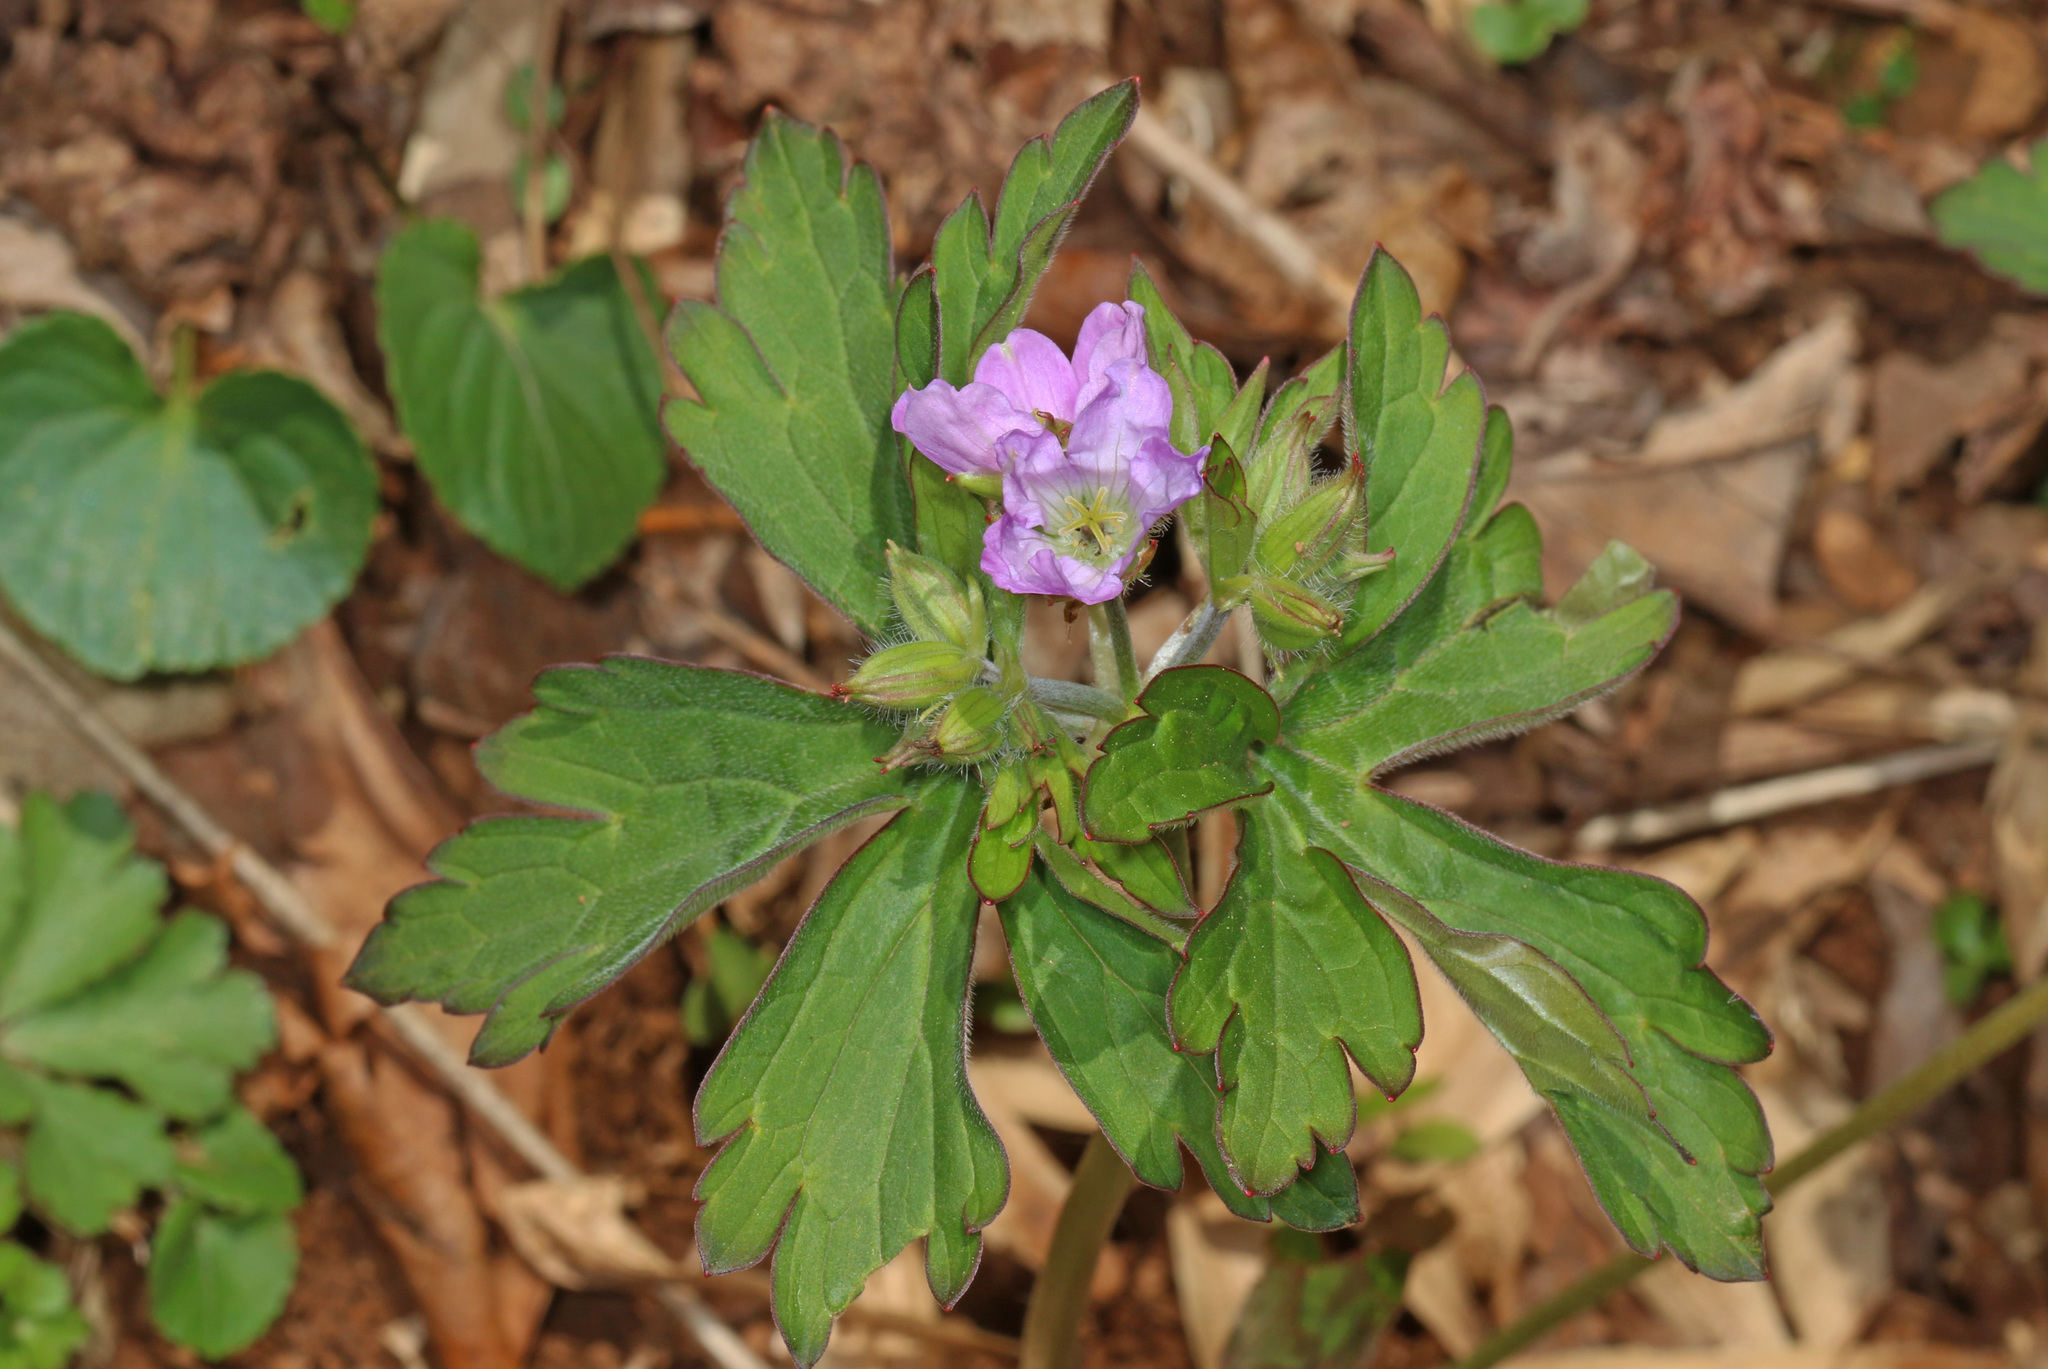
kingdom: Plantae
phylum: Tracheophyta
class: Magnoliopsida
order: Geraniales
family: Geraniaceae
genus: Geranium
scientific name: Geranium maculatum
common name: Spotted geranium
